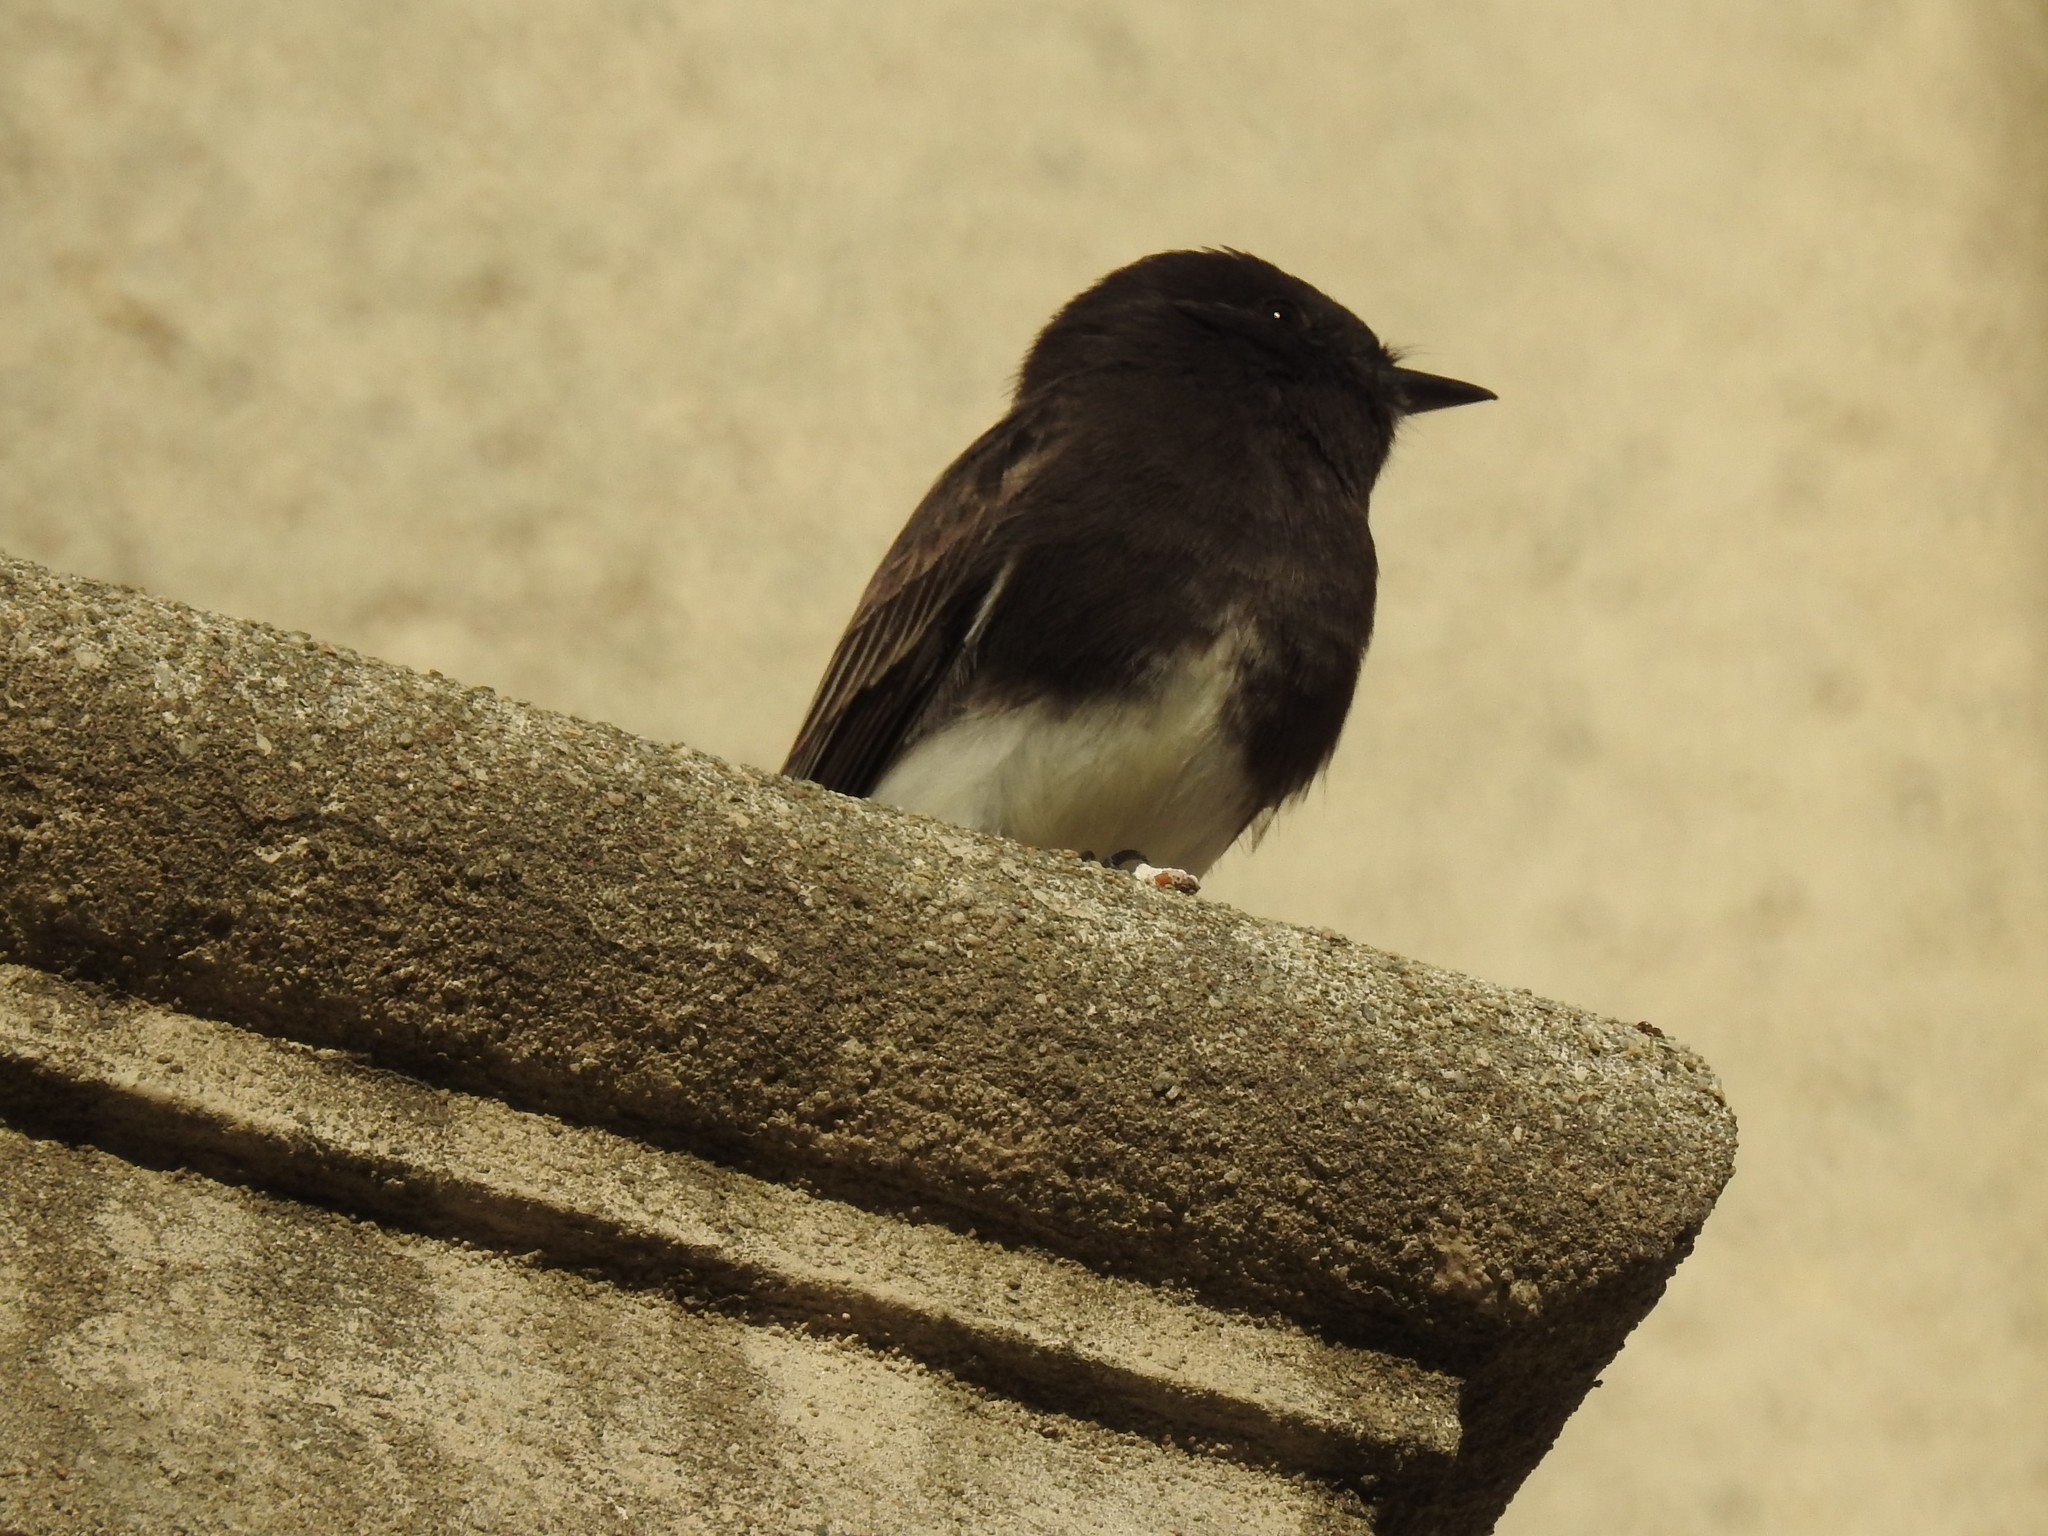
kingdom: Animalia
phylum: Chordata
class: Aves
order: Passeriformes
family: Tyrannidae
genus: Sayornis
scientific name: Sayornis nigricans
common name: Black phoebe
